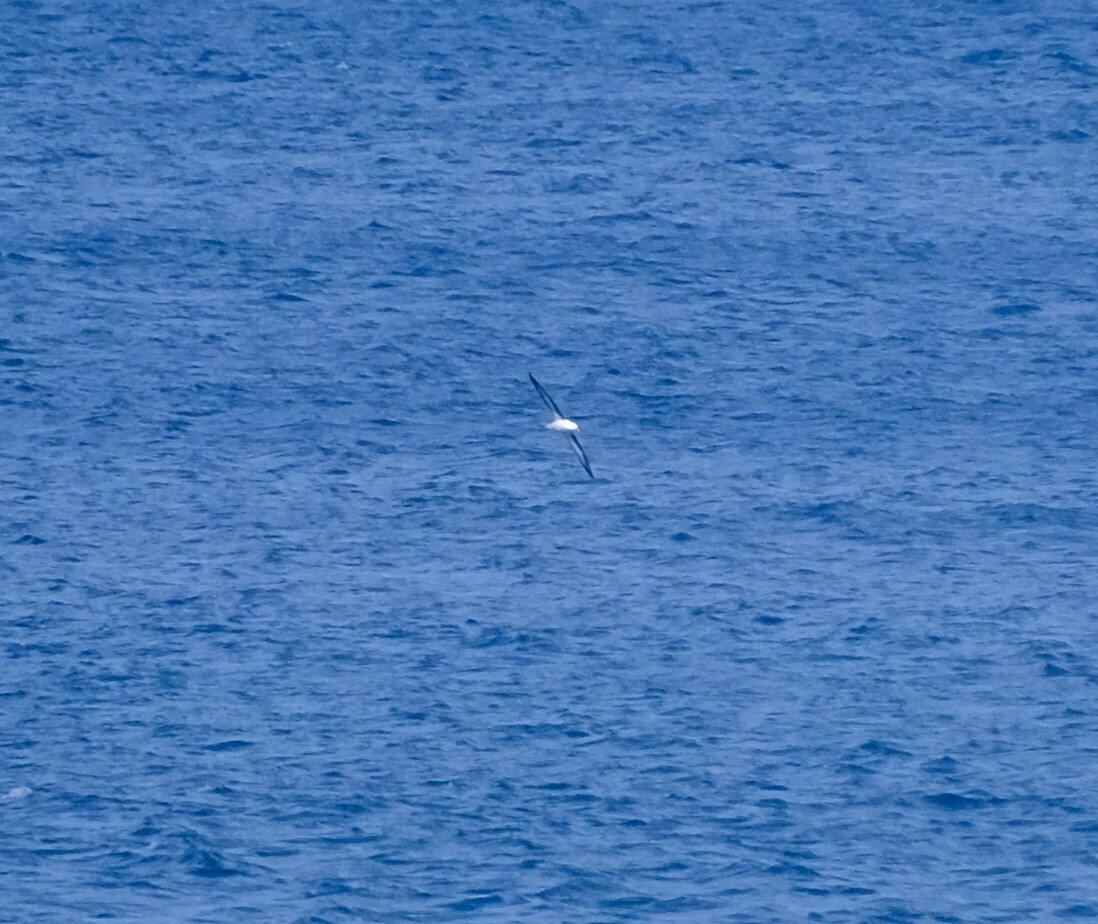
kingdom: Animalia
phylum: Chordata
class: Aves
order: Procellariiformes
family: Diomedeidae
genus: Thalassarche
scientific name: Thalassarche melanophris
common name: Black-browed albatross
